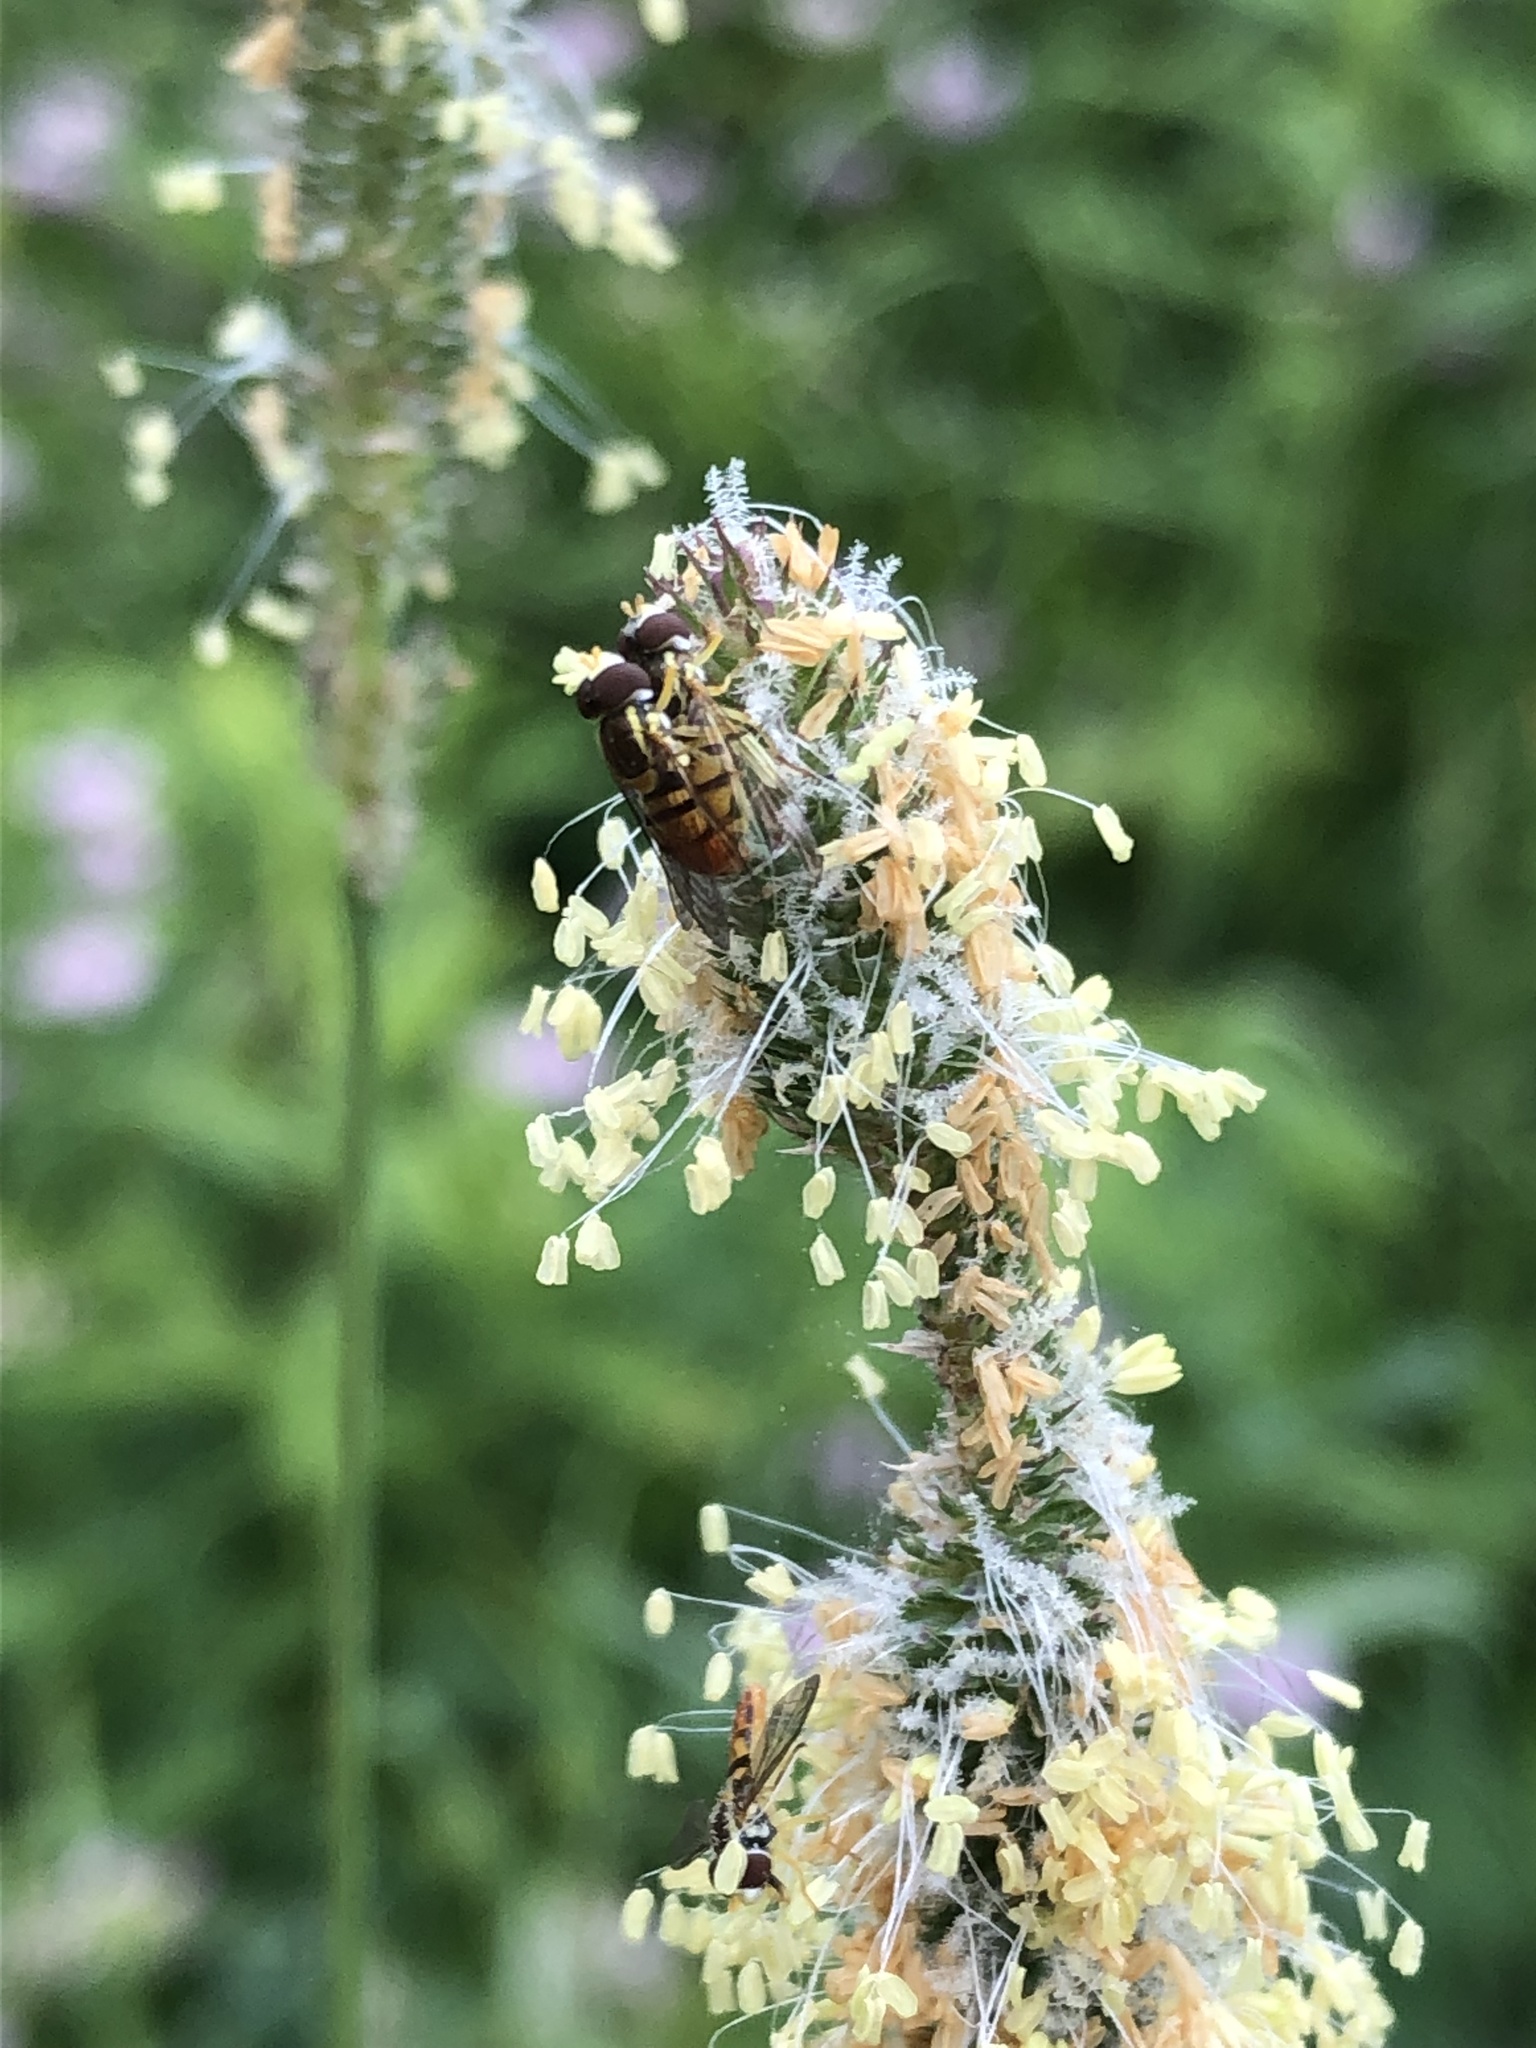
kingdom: Animalia
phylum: Arthropoda
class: Insecta
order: Diptera
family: Syrphidae
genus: Toxomerus
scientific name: Toxomerus marginatus
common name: Syrphid fly
